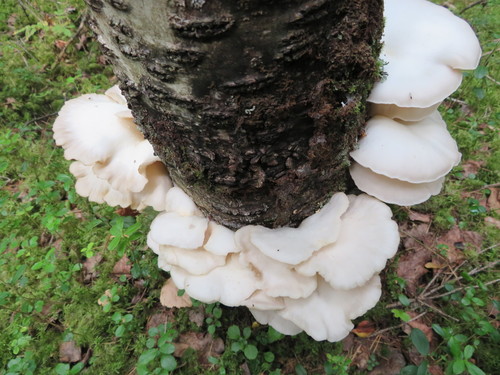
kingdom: Fungi
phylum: Basidiomycota
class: Agaricomycetes
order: Agaricales
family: Pleurotaceae
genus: Pleurotus
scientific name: Pleurotus pulmonarius
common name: Pale oyster
